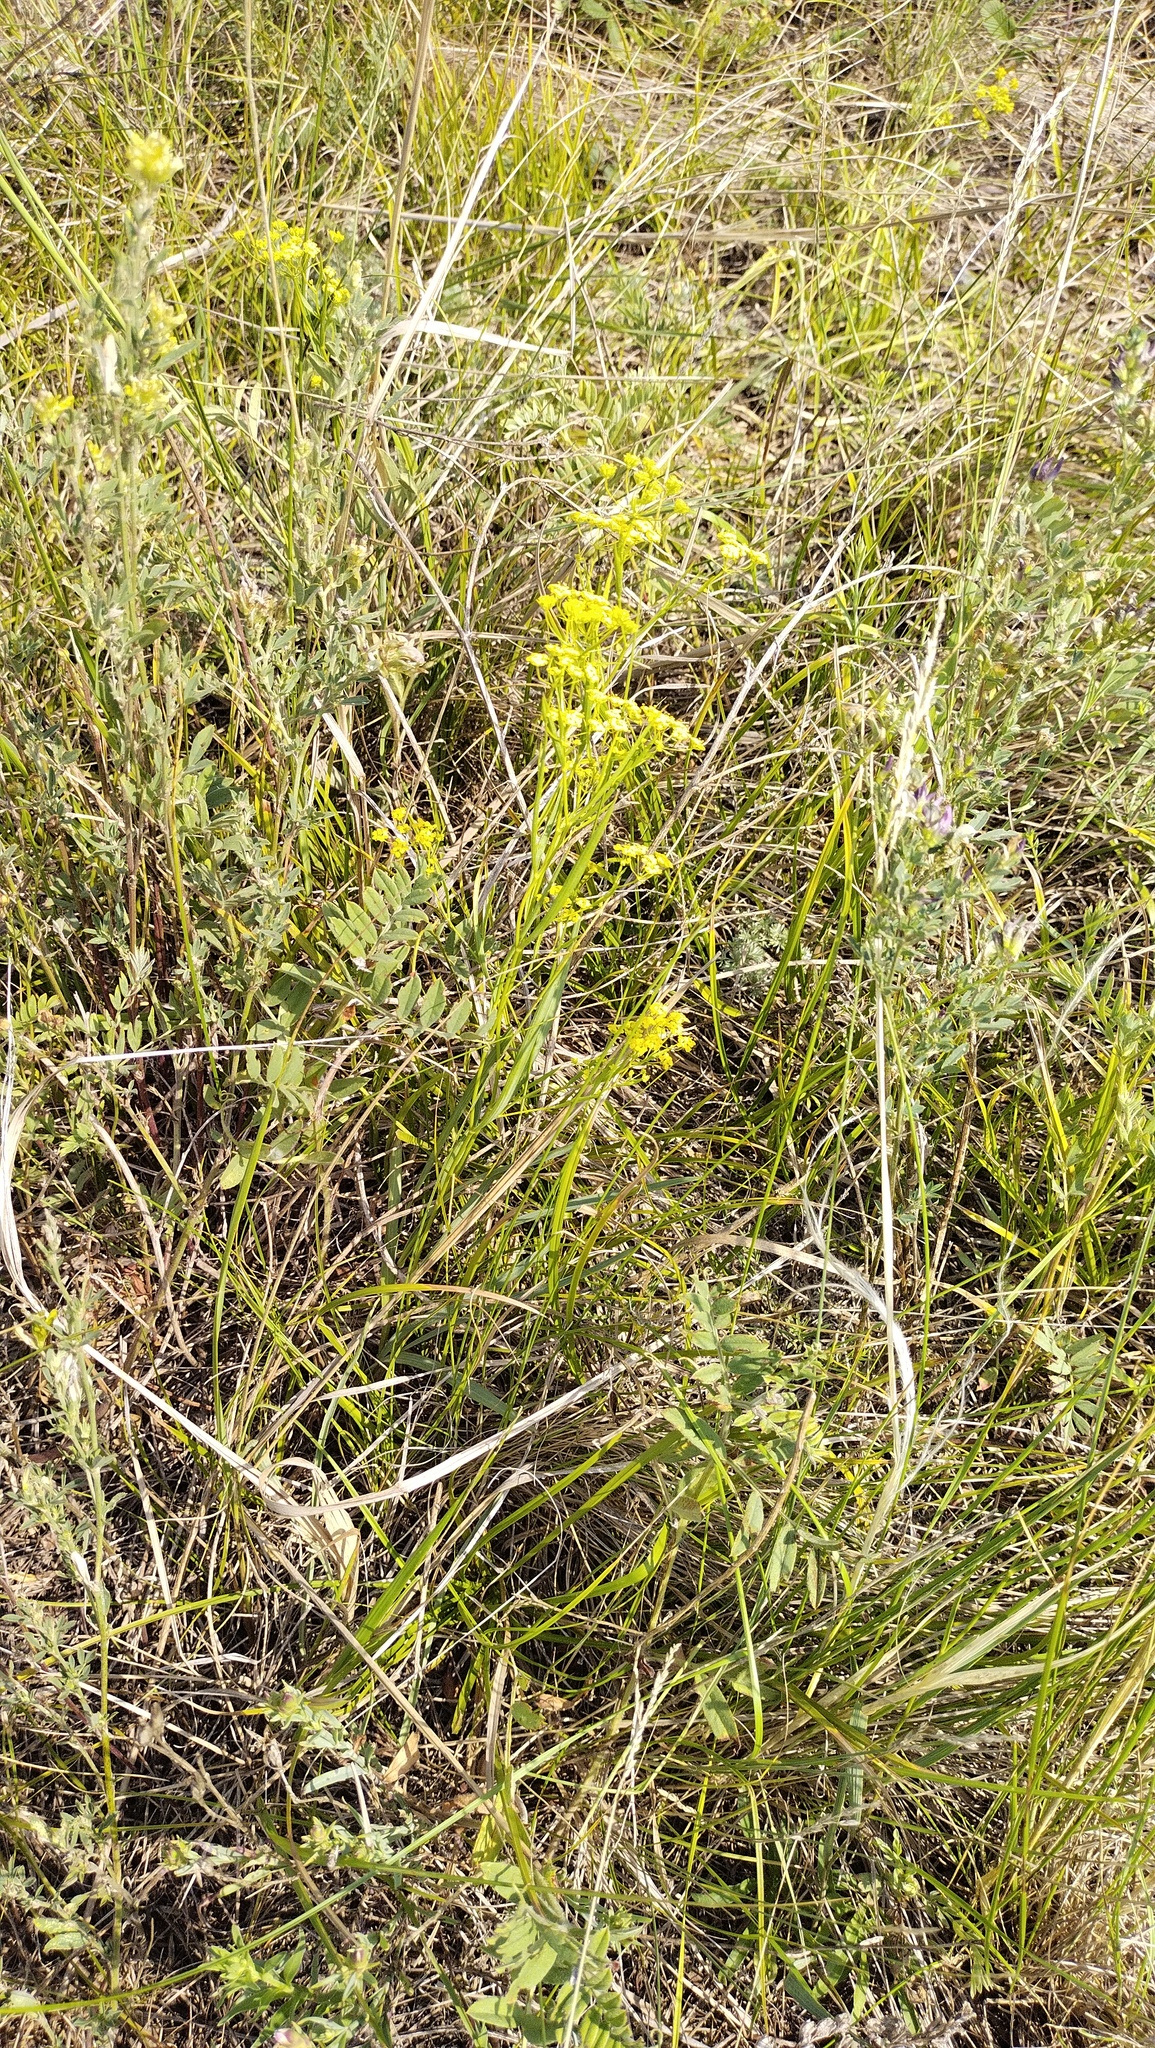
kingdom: Plantae
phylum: Tracheophyta
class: Magnoliopsida
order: Apiales
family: Apiaceae
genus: Bupleurum
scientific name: Bupleurum scorzonerifolium
